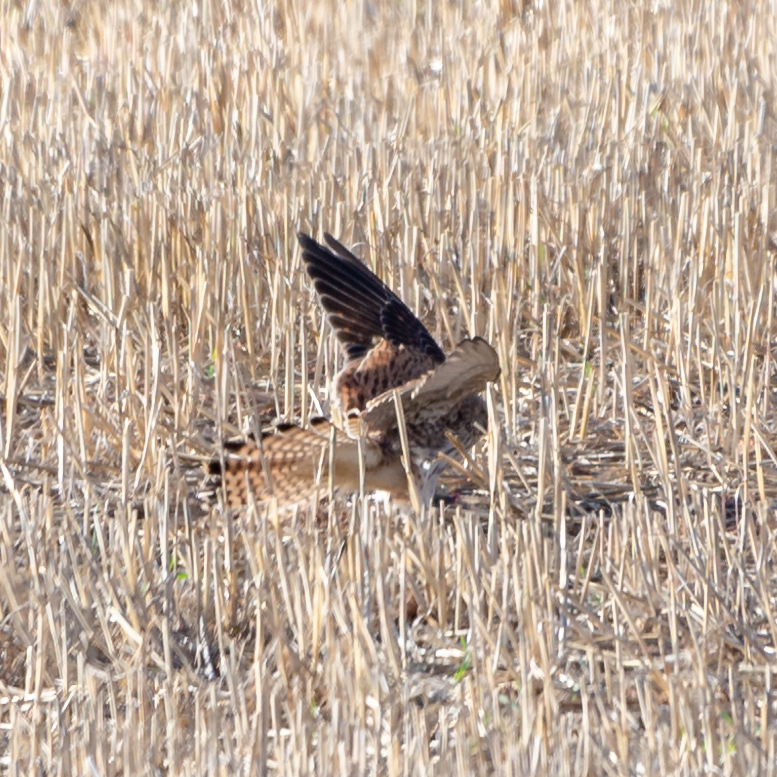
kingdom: Animalia
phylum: Chordata
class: Aves
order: Falconiformes
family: Falconidae
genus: Falco
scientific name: Falco tinnunculus
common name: Common kestrel
